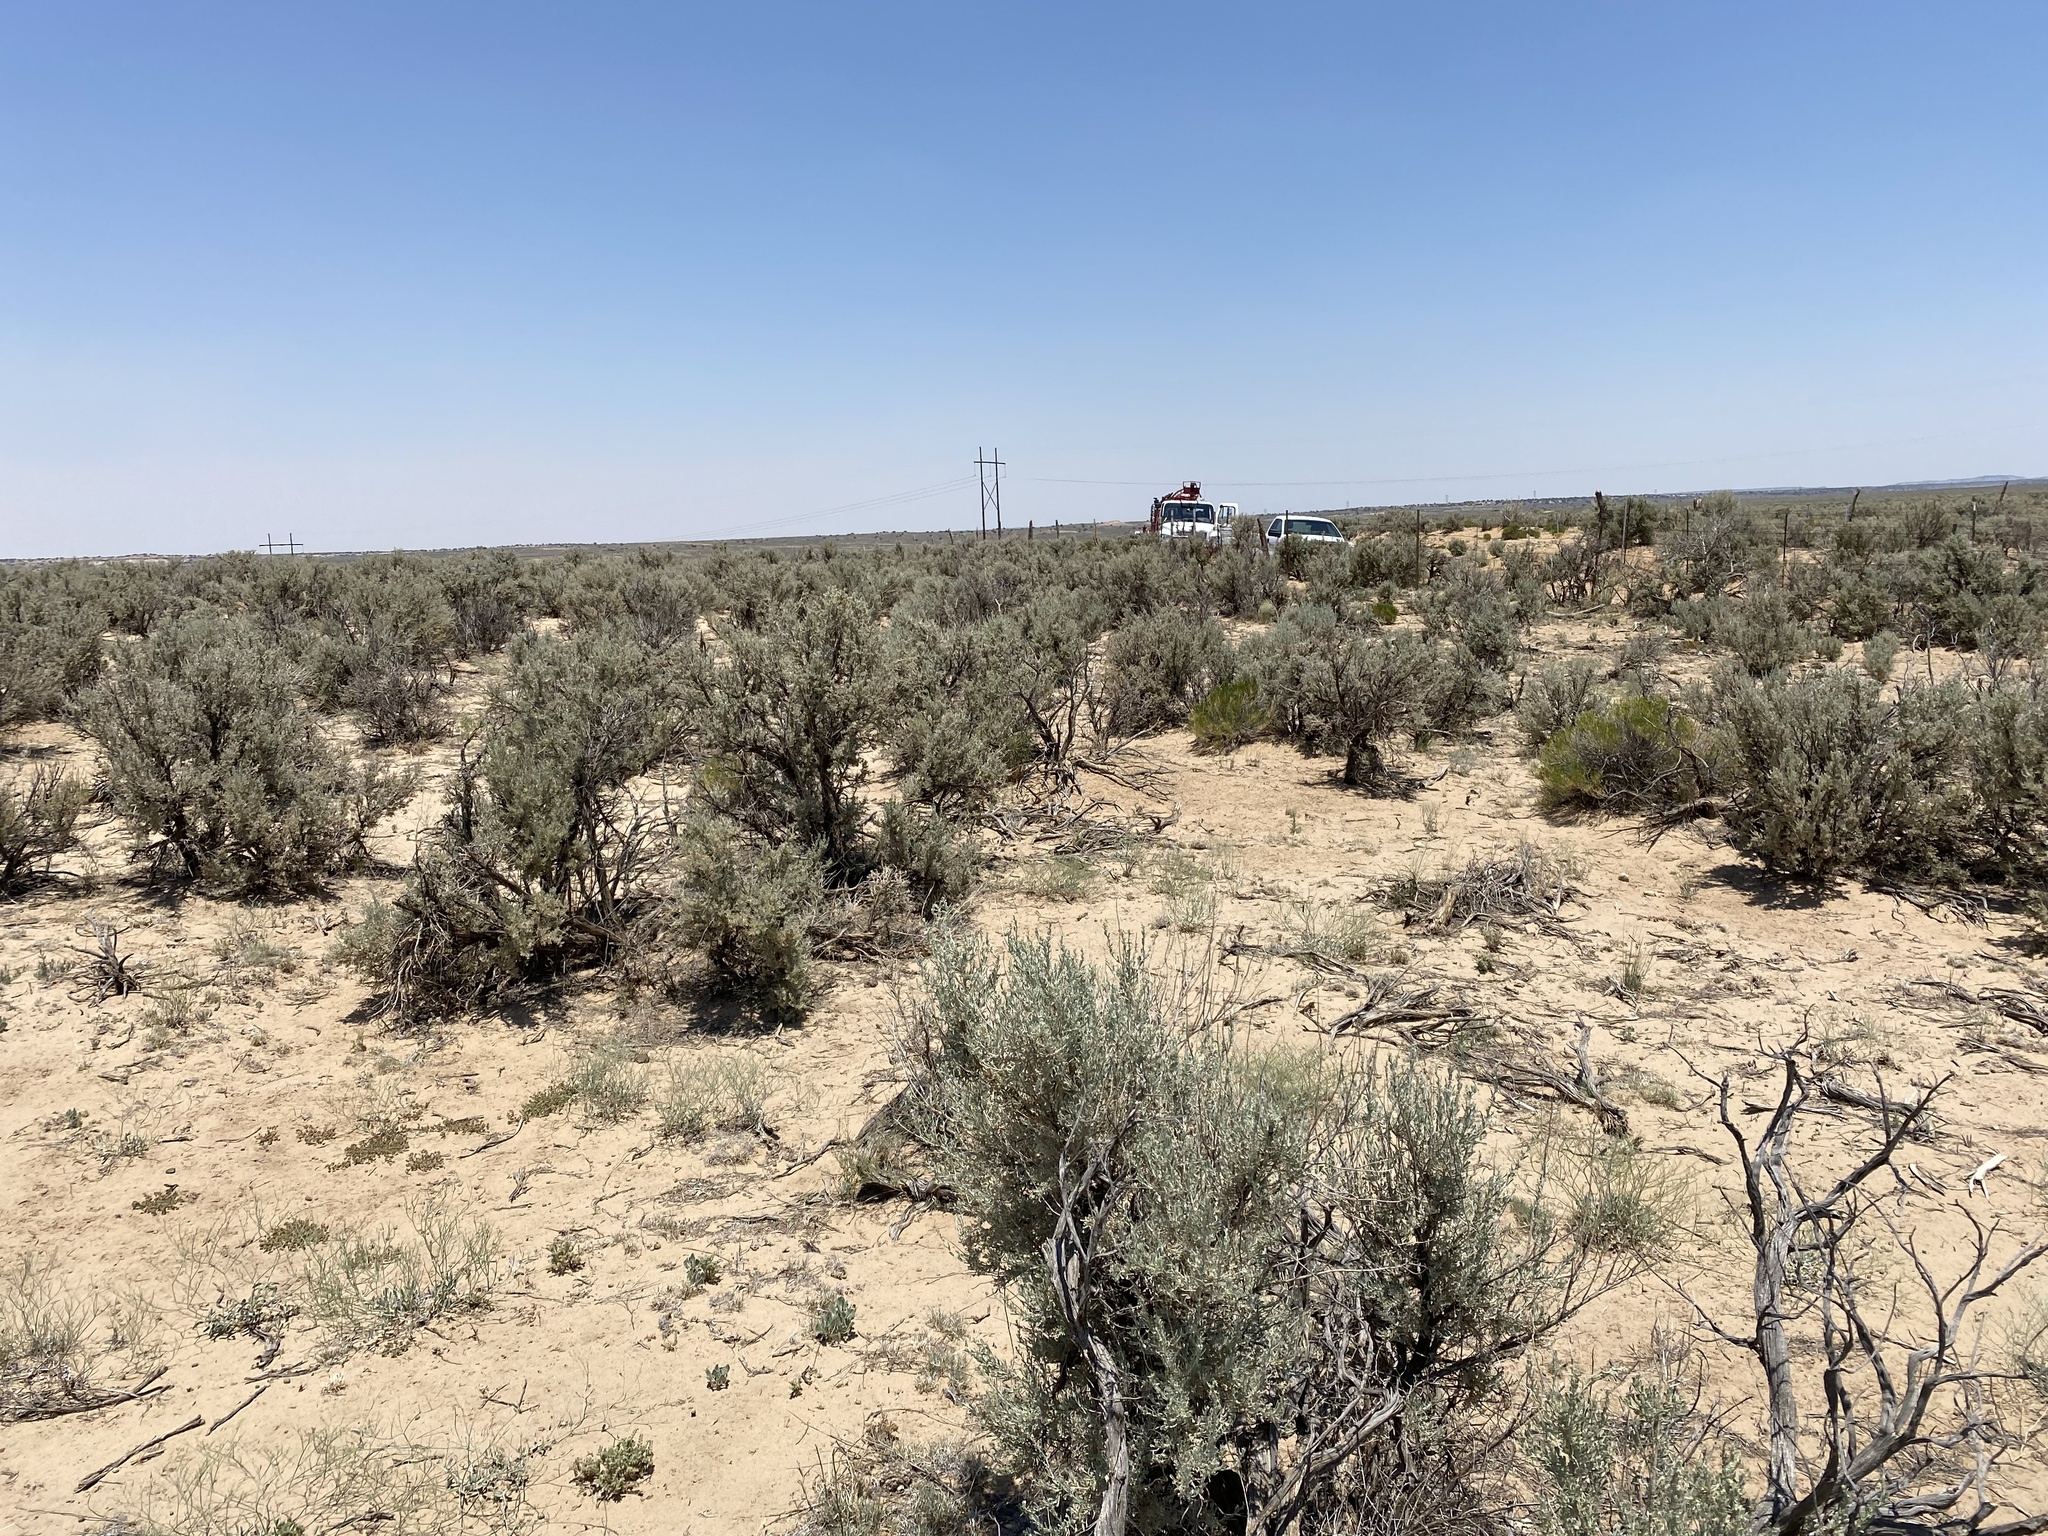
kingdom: Plantae
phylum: Tracheophyta
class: Magnoliopsida
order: Asterales
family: Asteraceae
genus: Artemisia
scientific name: Artemisia tridentata
